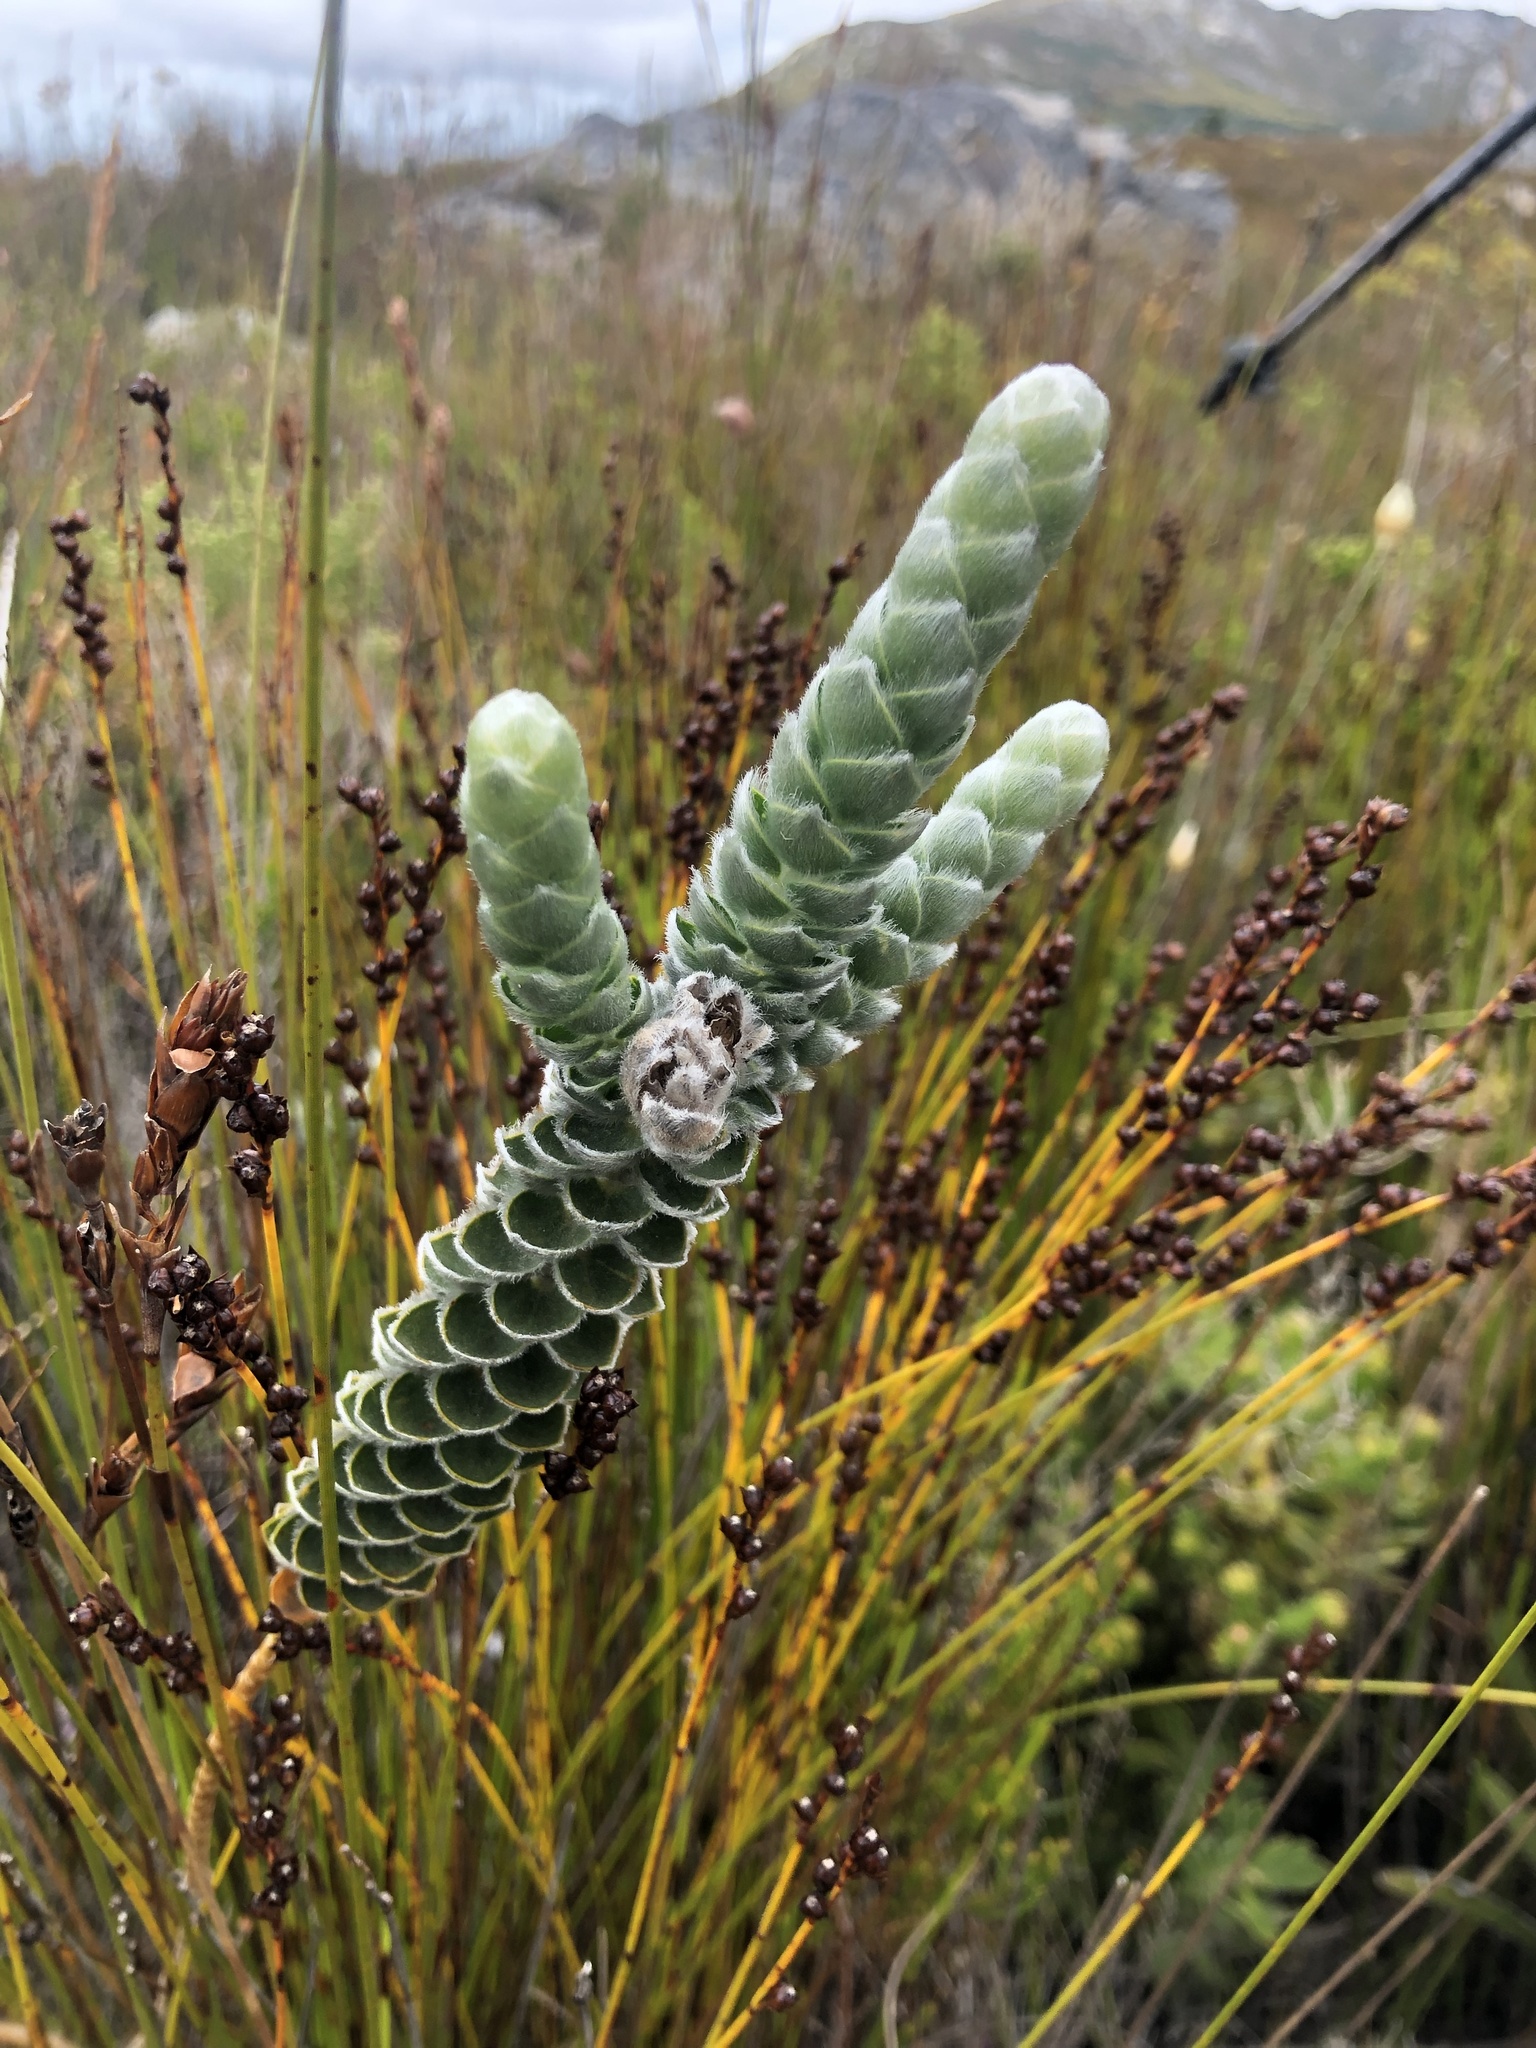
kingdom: Plantae
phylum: Tracheophyta
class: Magnoliopsida
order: Fabales
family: Fabaceae
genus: Liparia
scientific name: Liparia vestita
